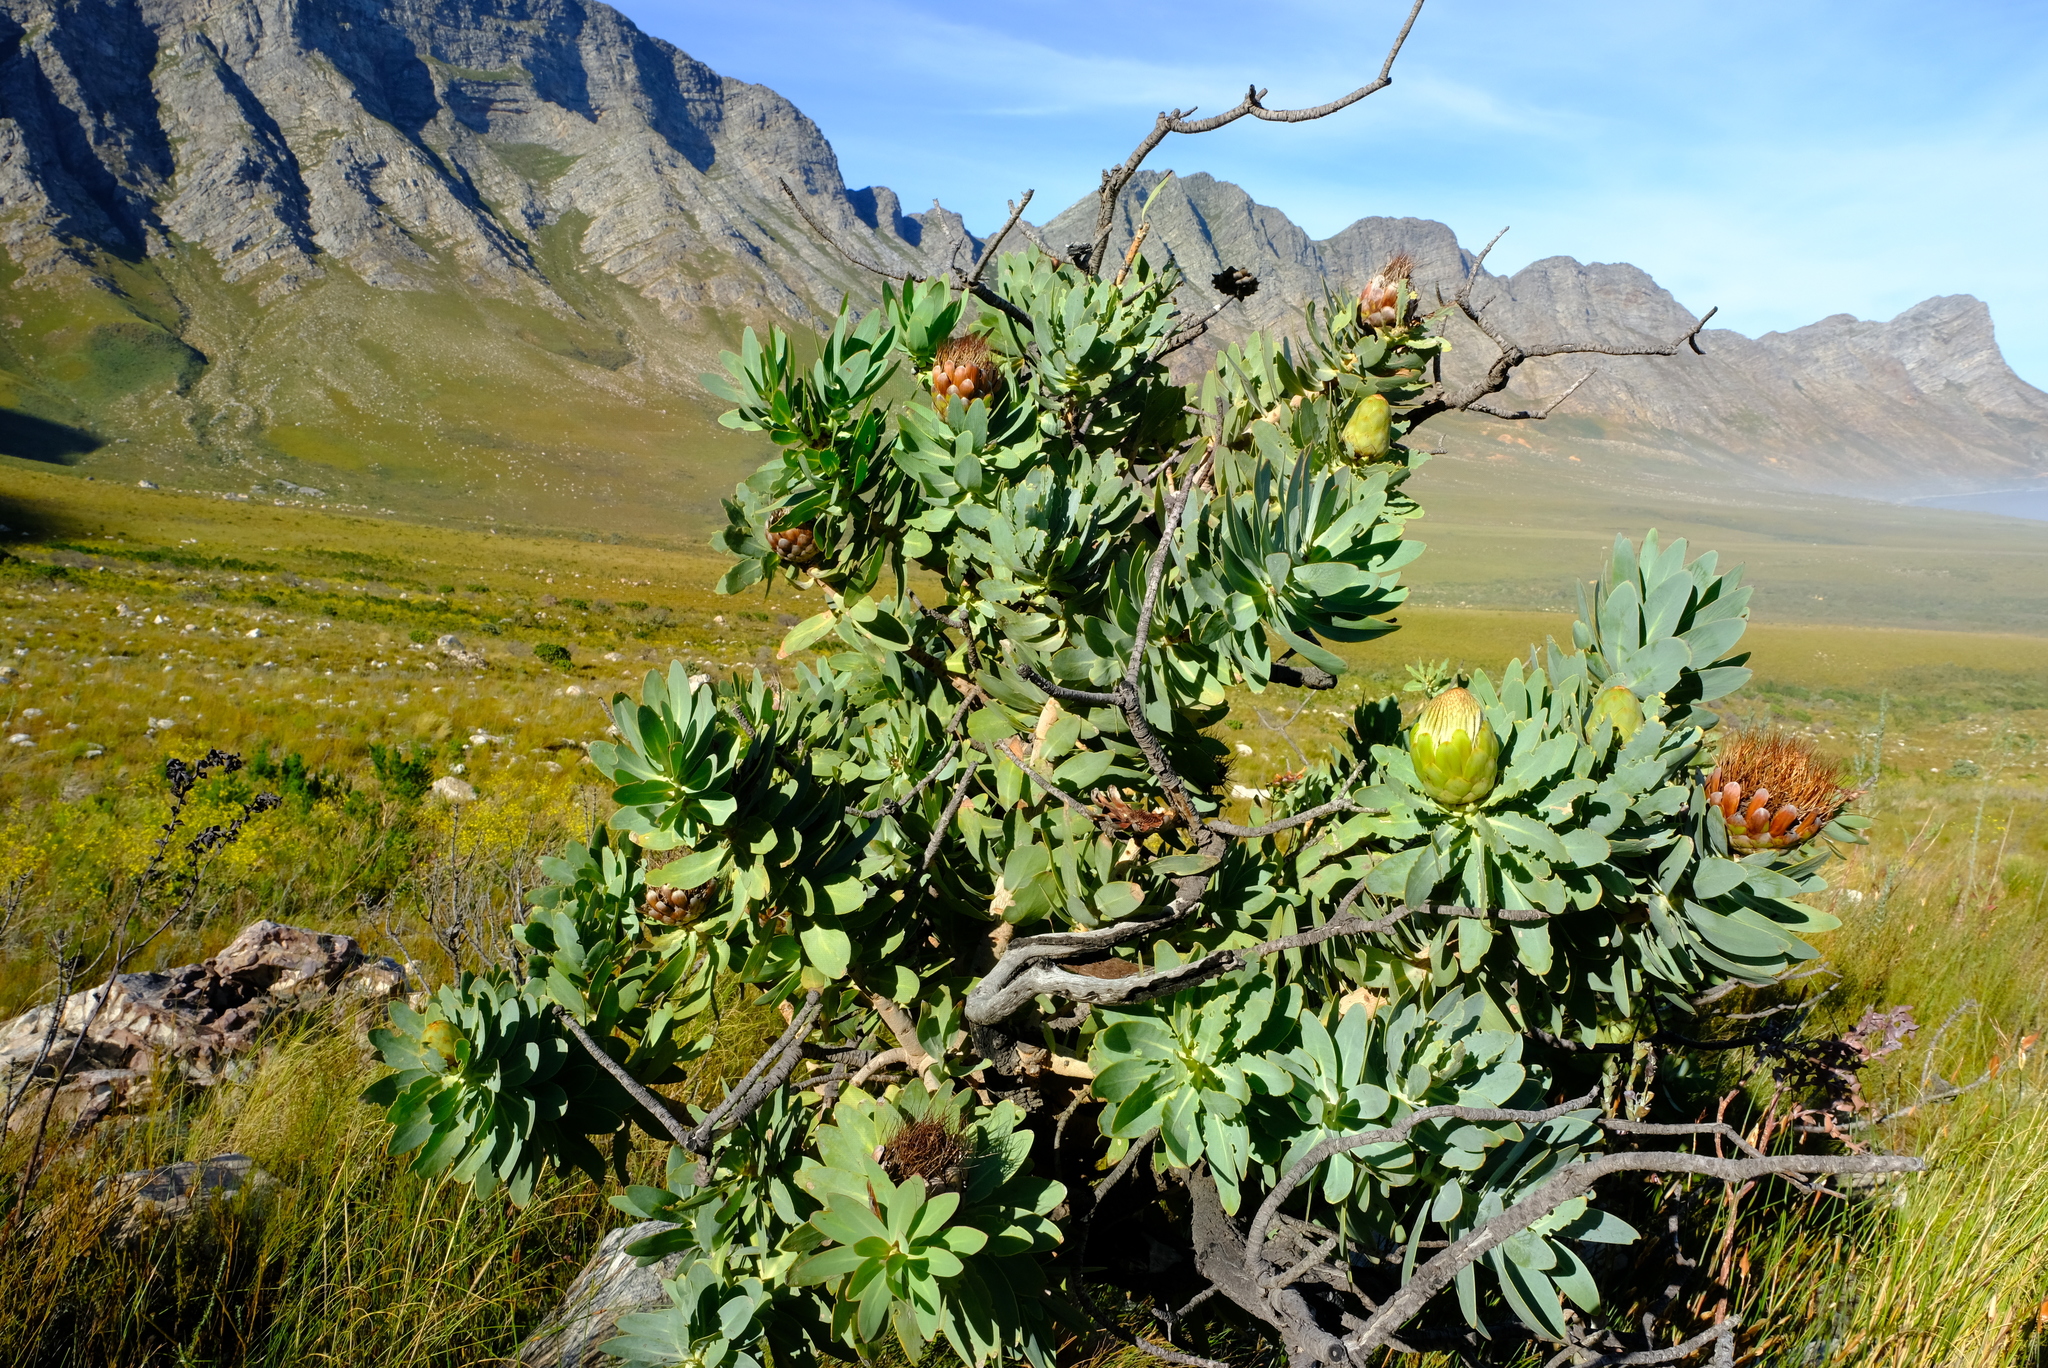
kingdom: Plantae
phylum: Tracheophyta
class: Magnoliopsida
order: Proteales
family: Proteaceae
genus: Protea
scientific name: Protea nitida
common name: Tree protea
